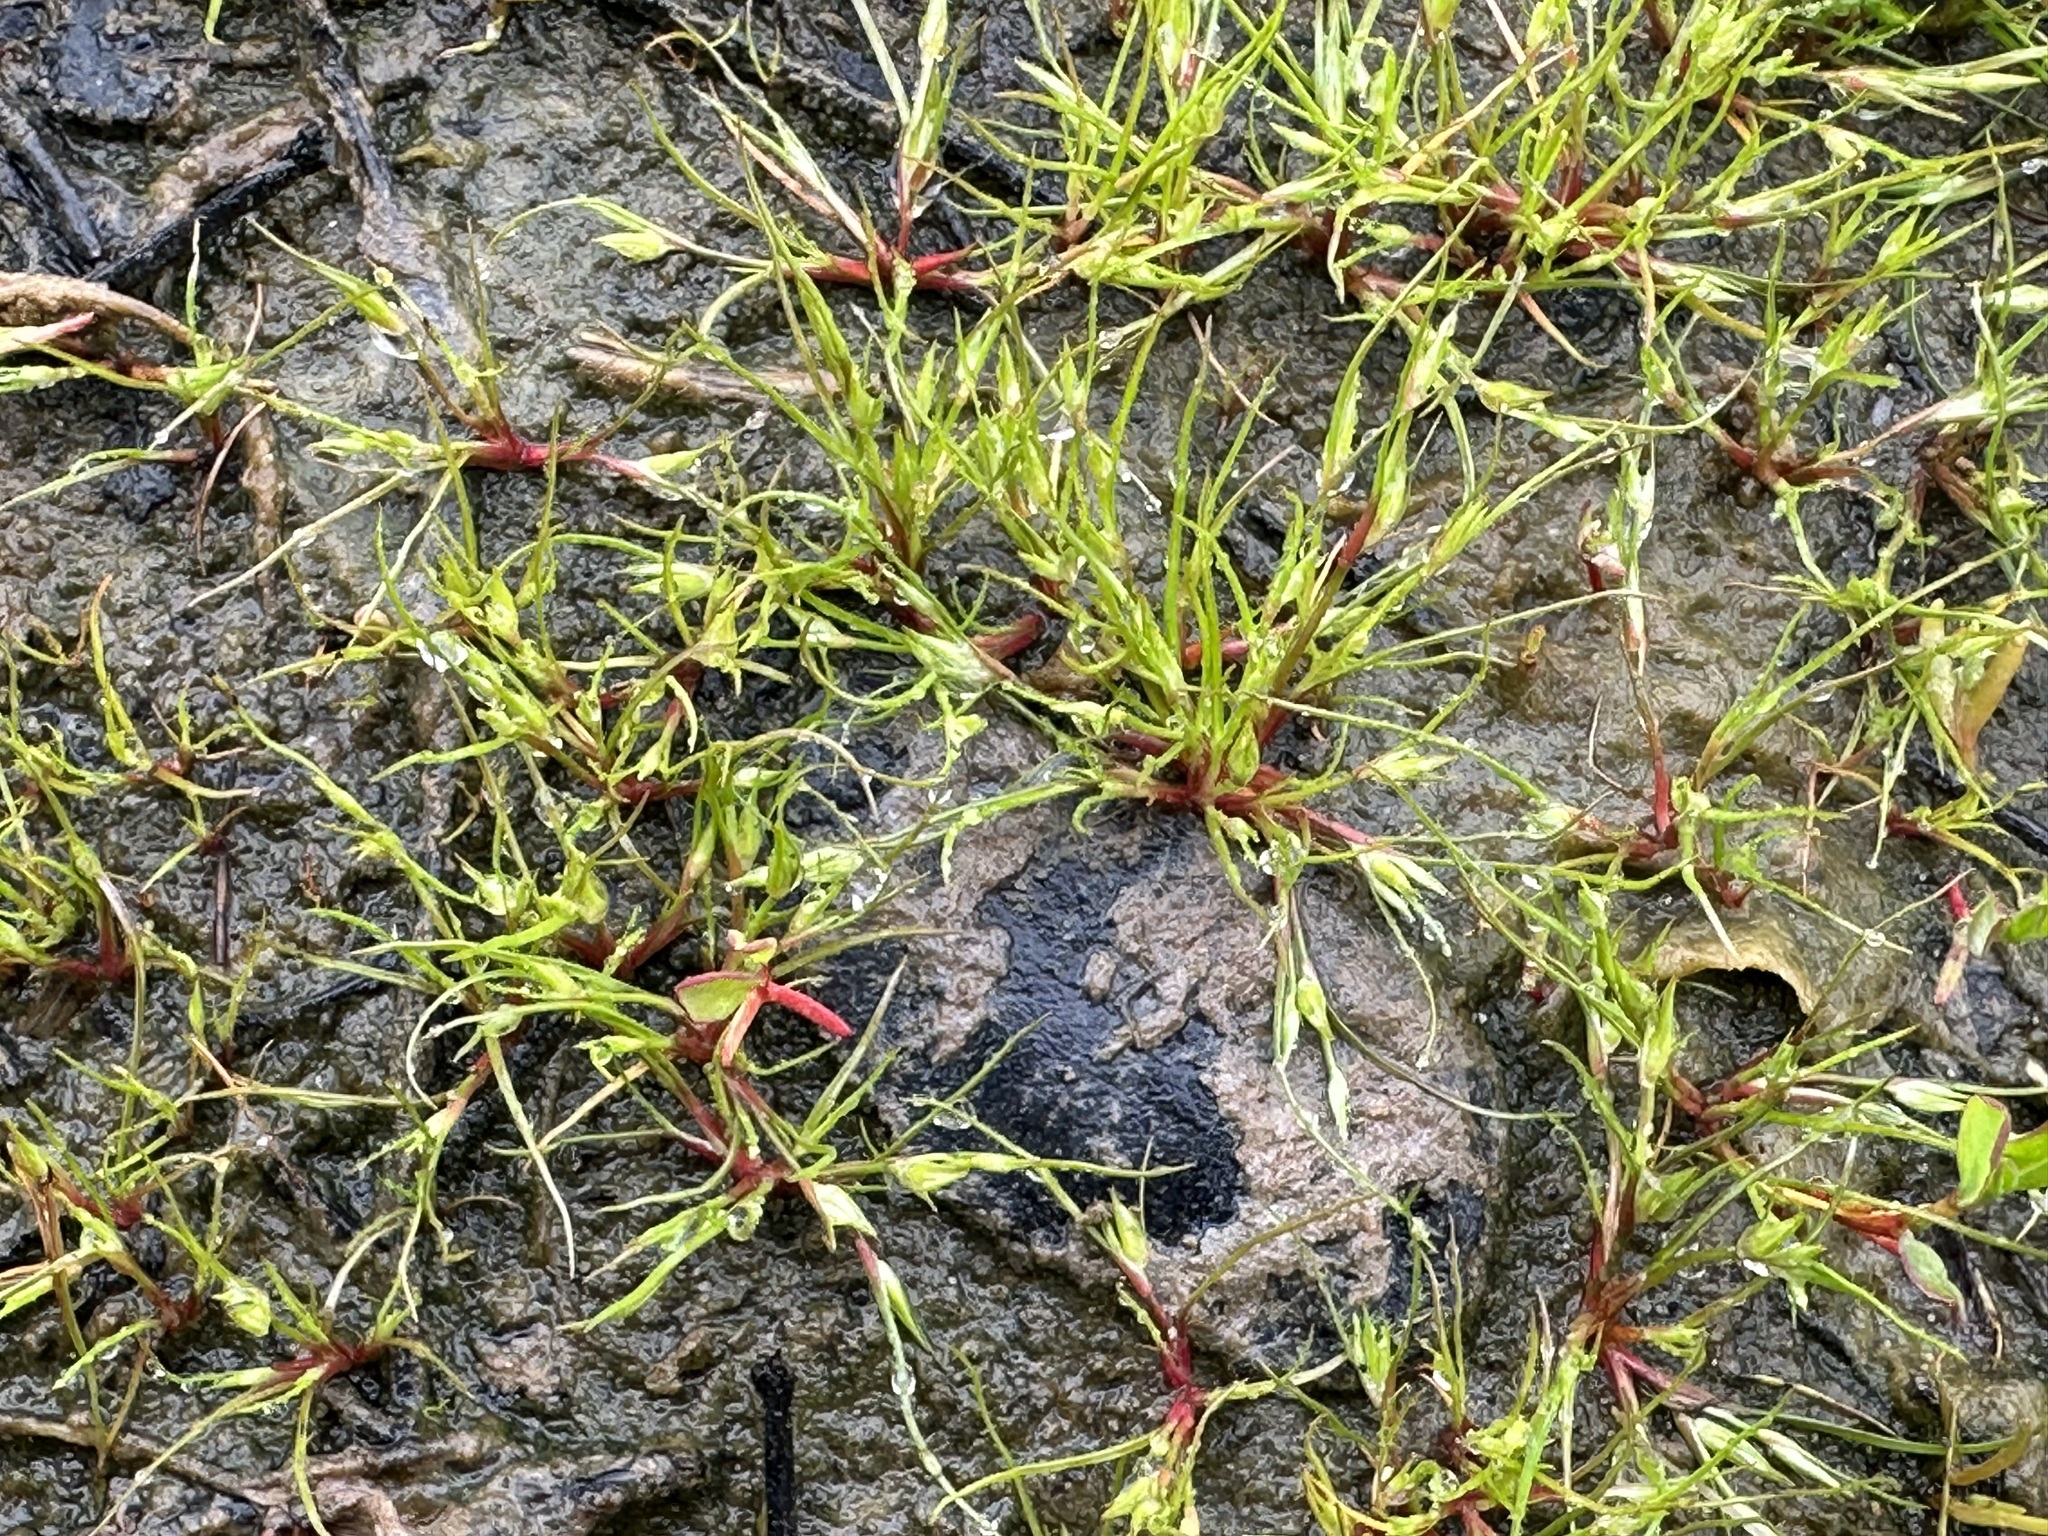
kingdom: Plantae
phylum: Tracheophyta
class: Liliopsida
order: Poales
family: Juncaceae
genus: Juncus
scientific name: Juncus bufonius
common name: Toad rush
